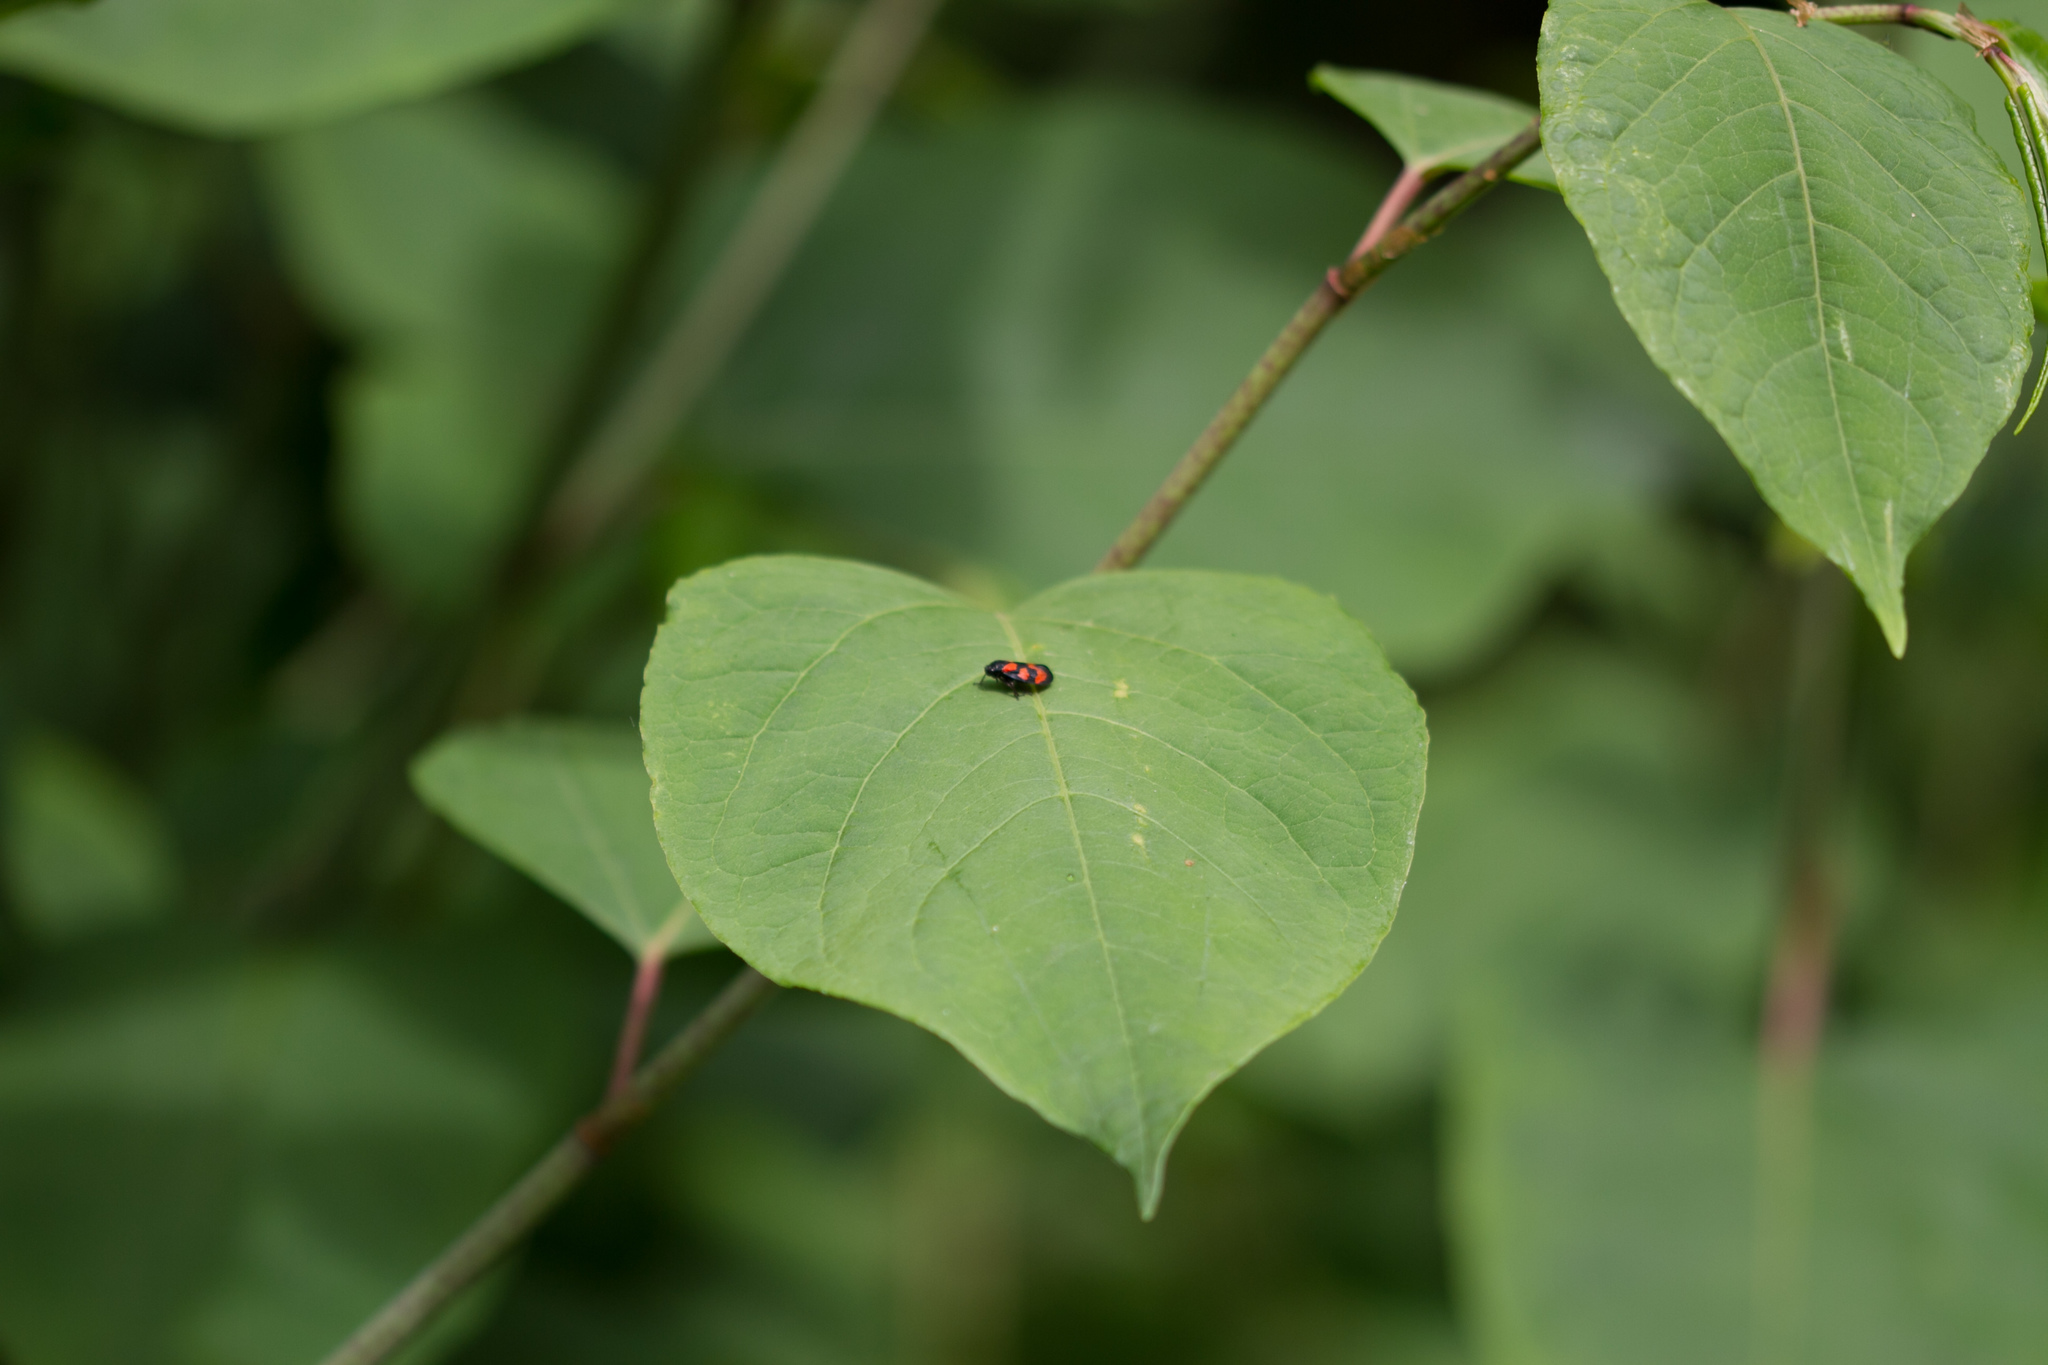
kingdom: Animalia
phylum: Arthropoda
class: Insecta
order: Hemiptera
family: Cercopidae
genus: Cercopis
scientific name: Cercopis vulnerata
